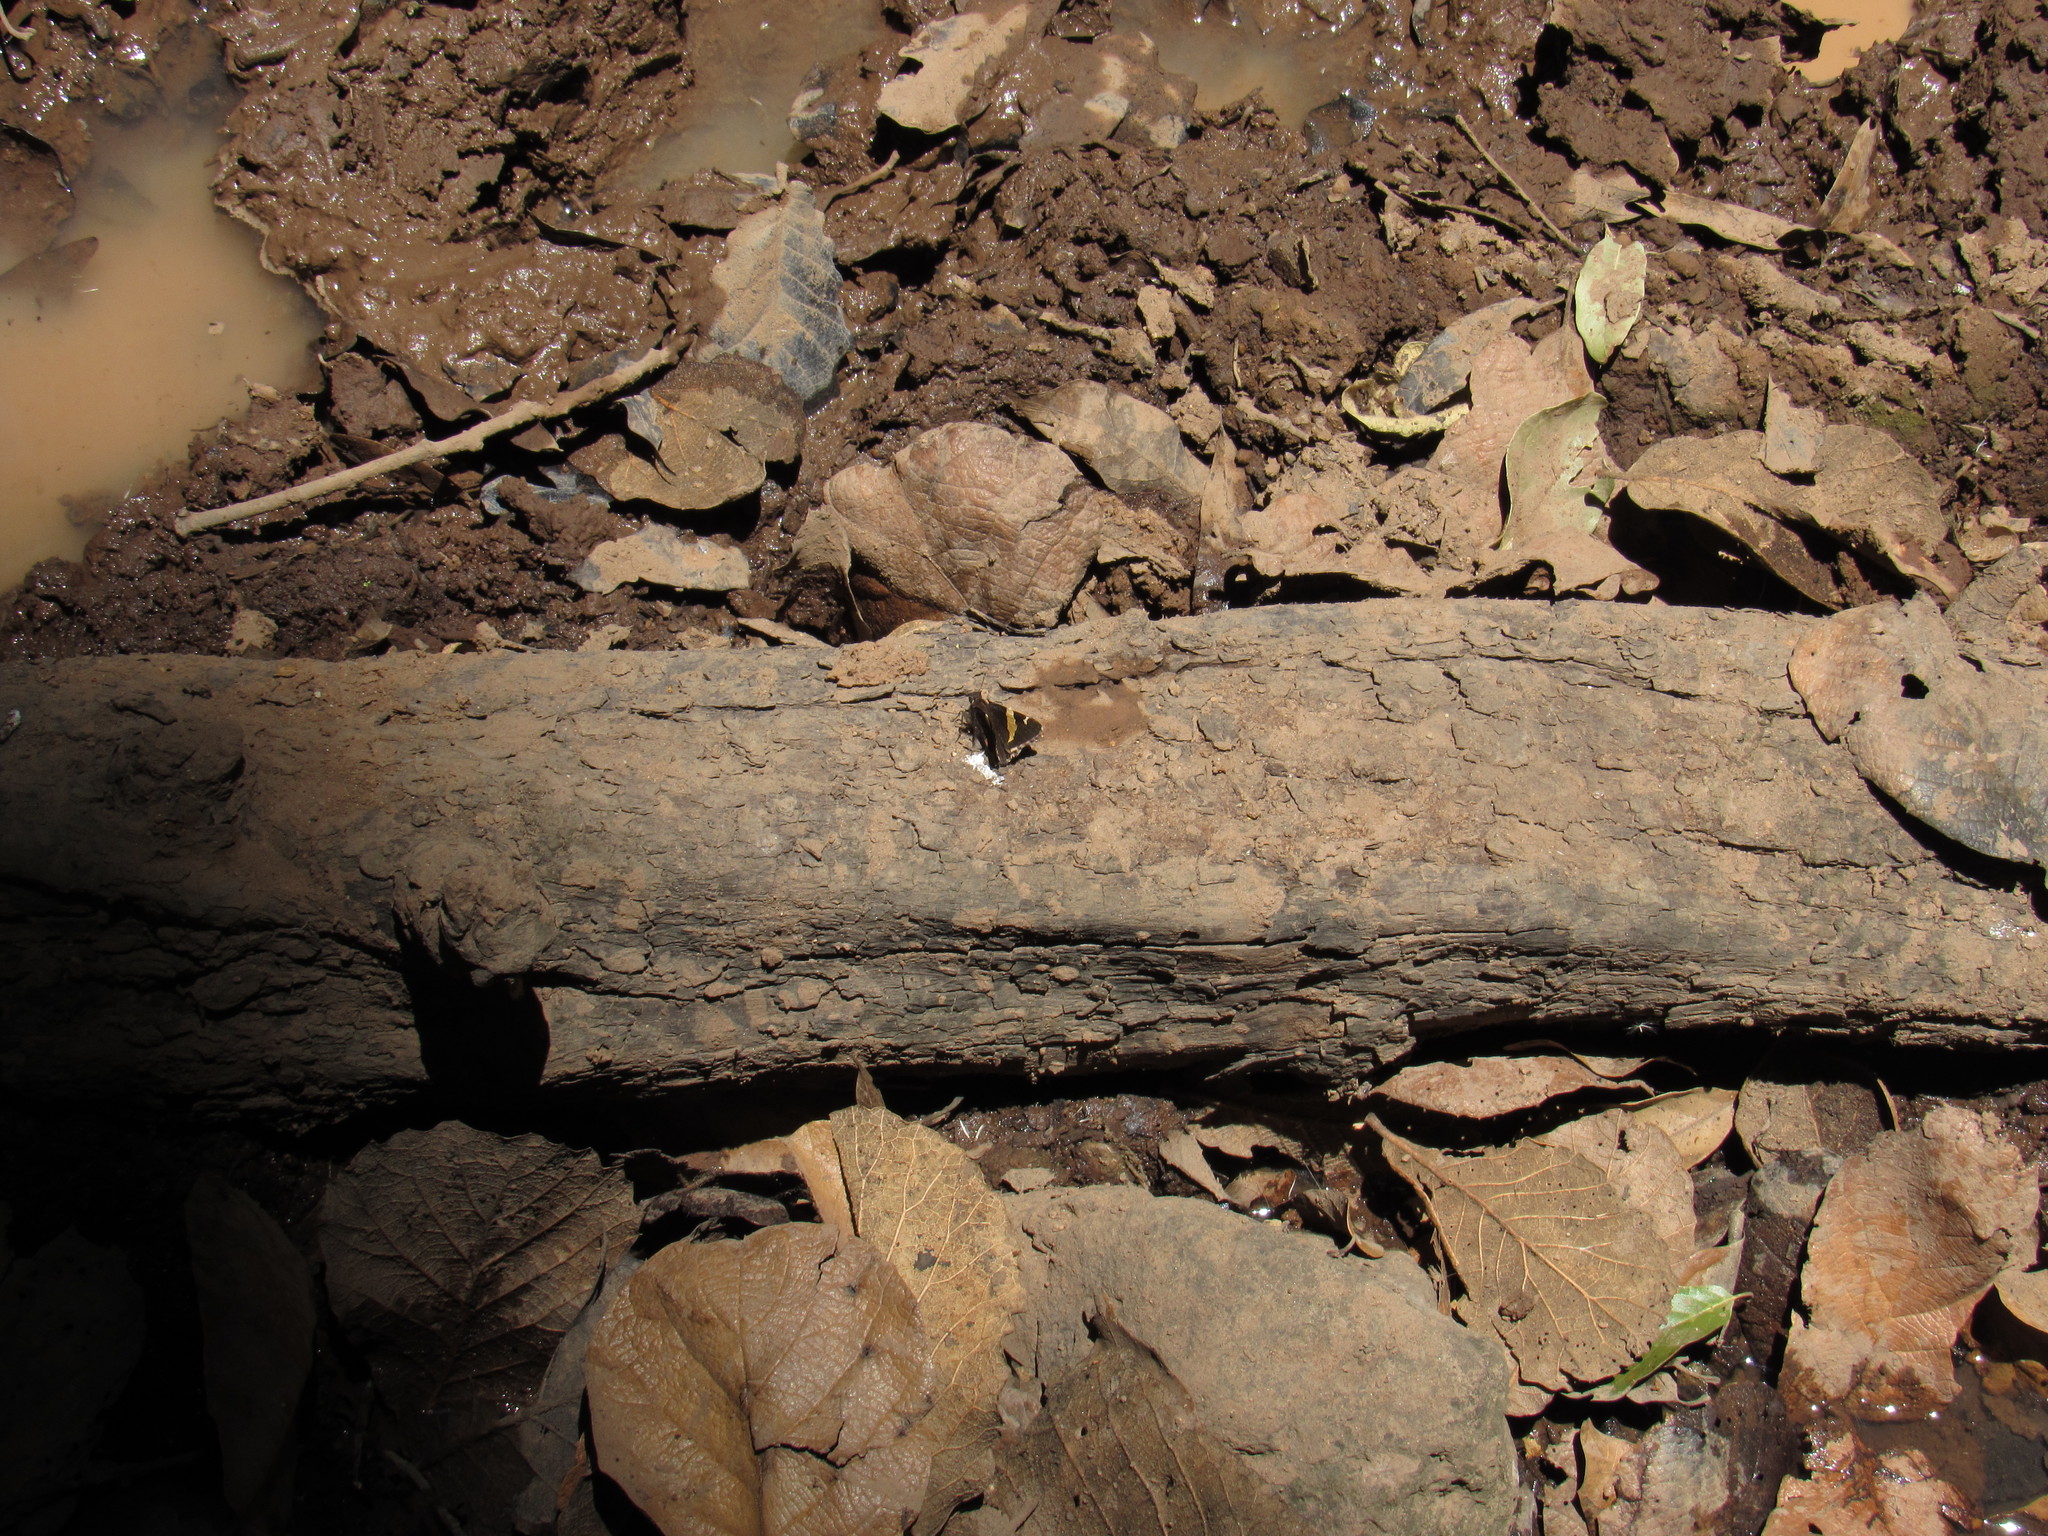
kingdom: Animalia
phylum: Arthropoda
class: Arachnida
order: Scorpiones
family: Bothriuridae
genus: Telegonus
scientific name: Telegonus cellus
